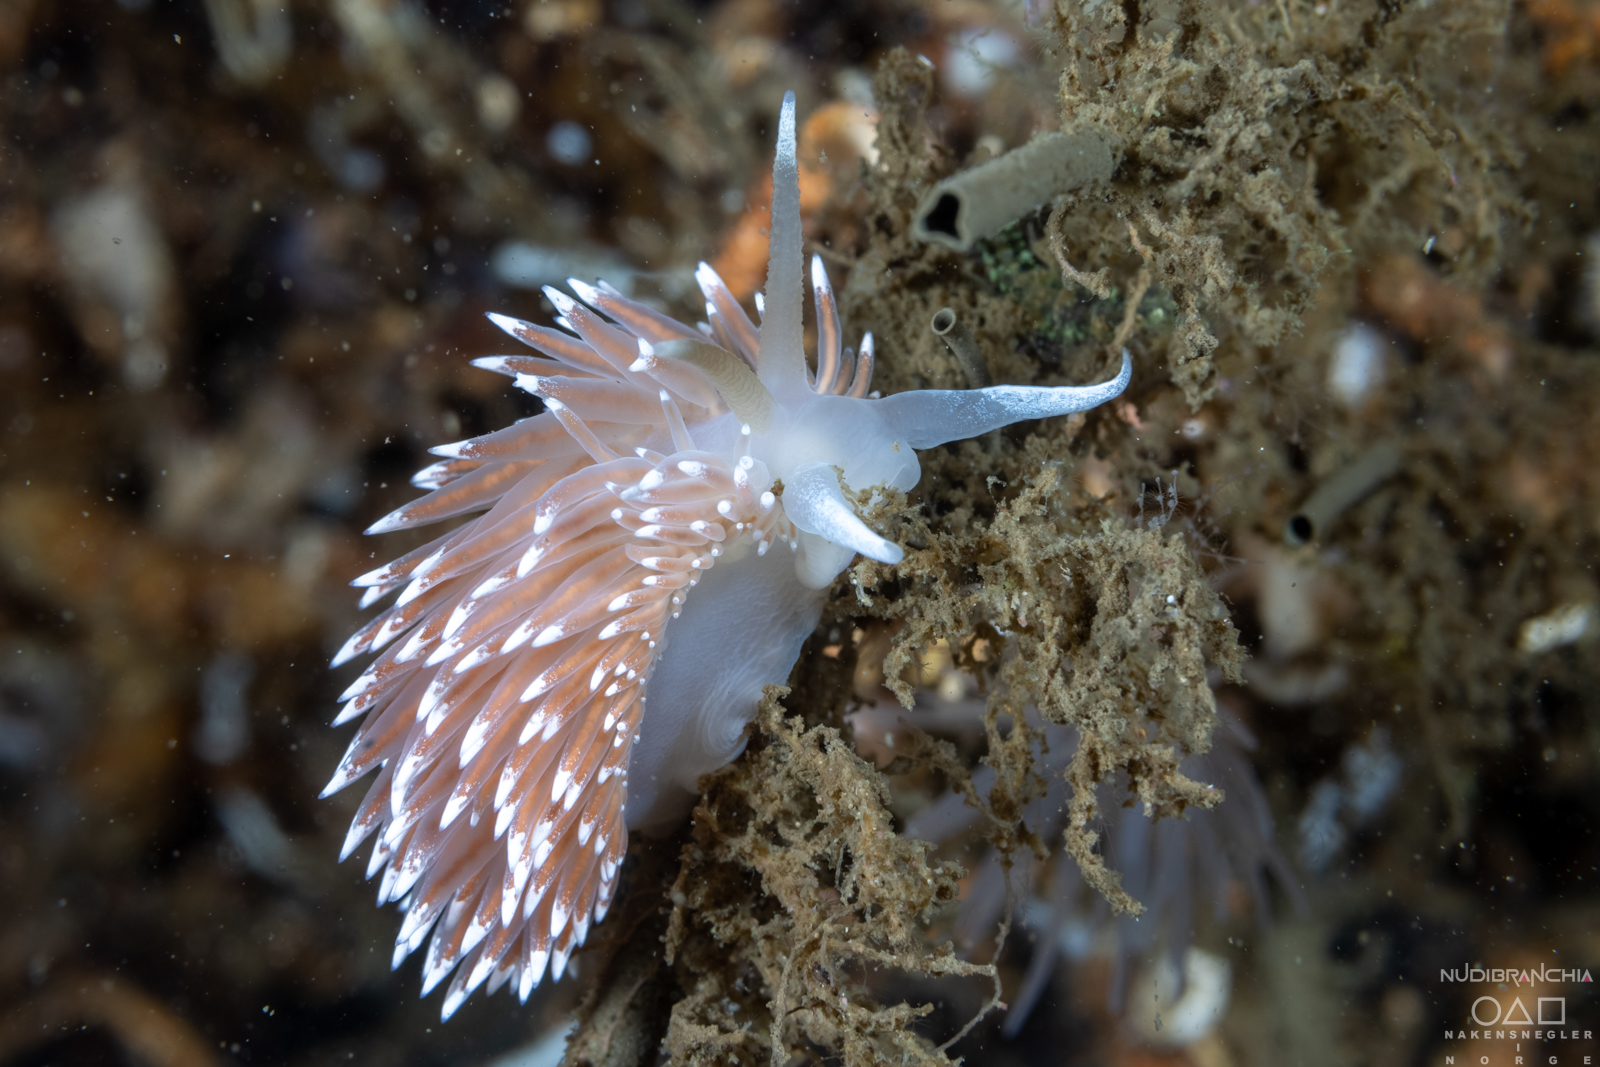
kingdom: Animalia
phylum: Mollusca
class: Gastropoda
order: Nudibranchia
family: Coryphellidae
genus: Coryphella
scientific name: Coryphella nobilis
